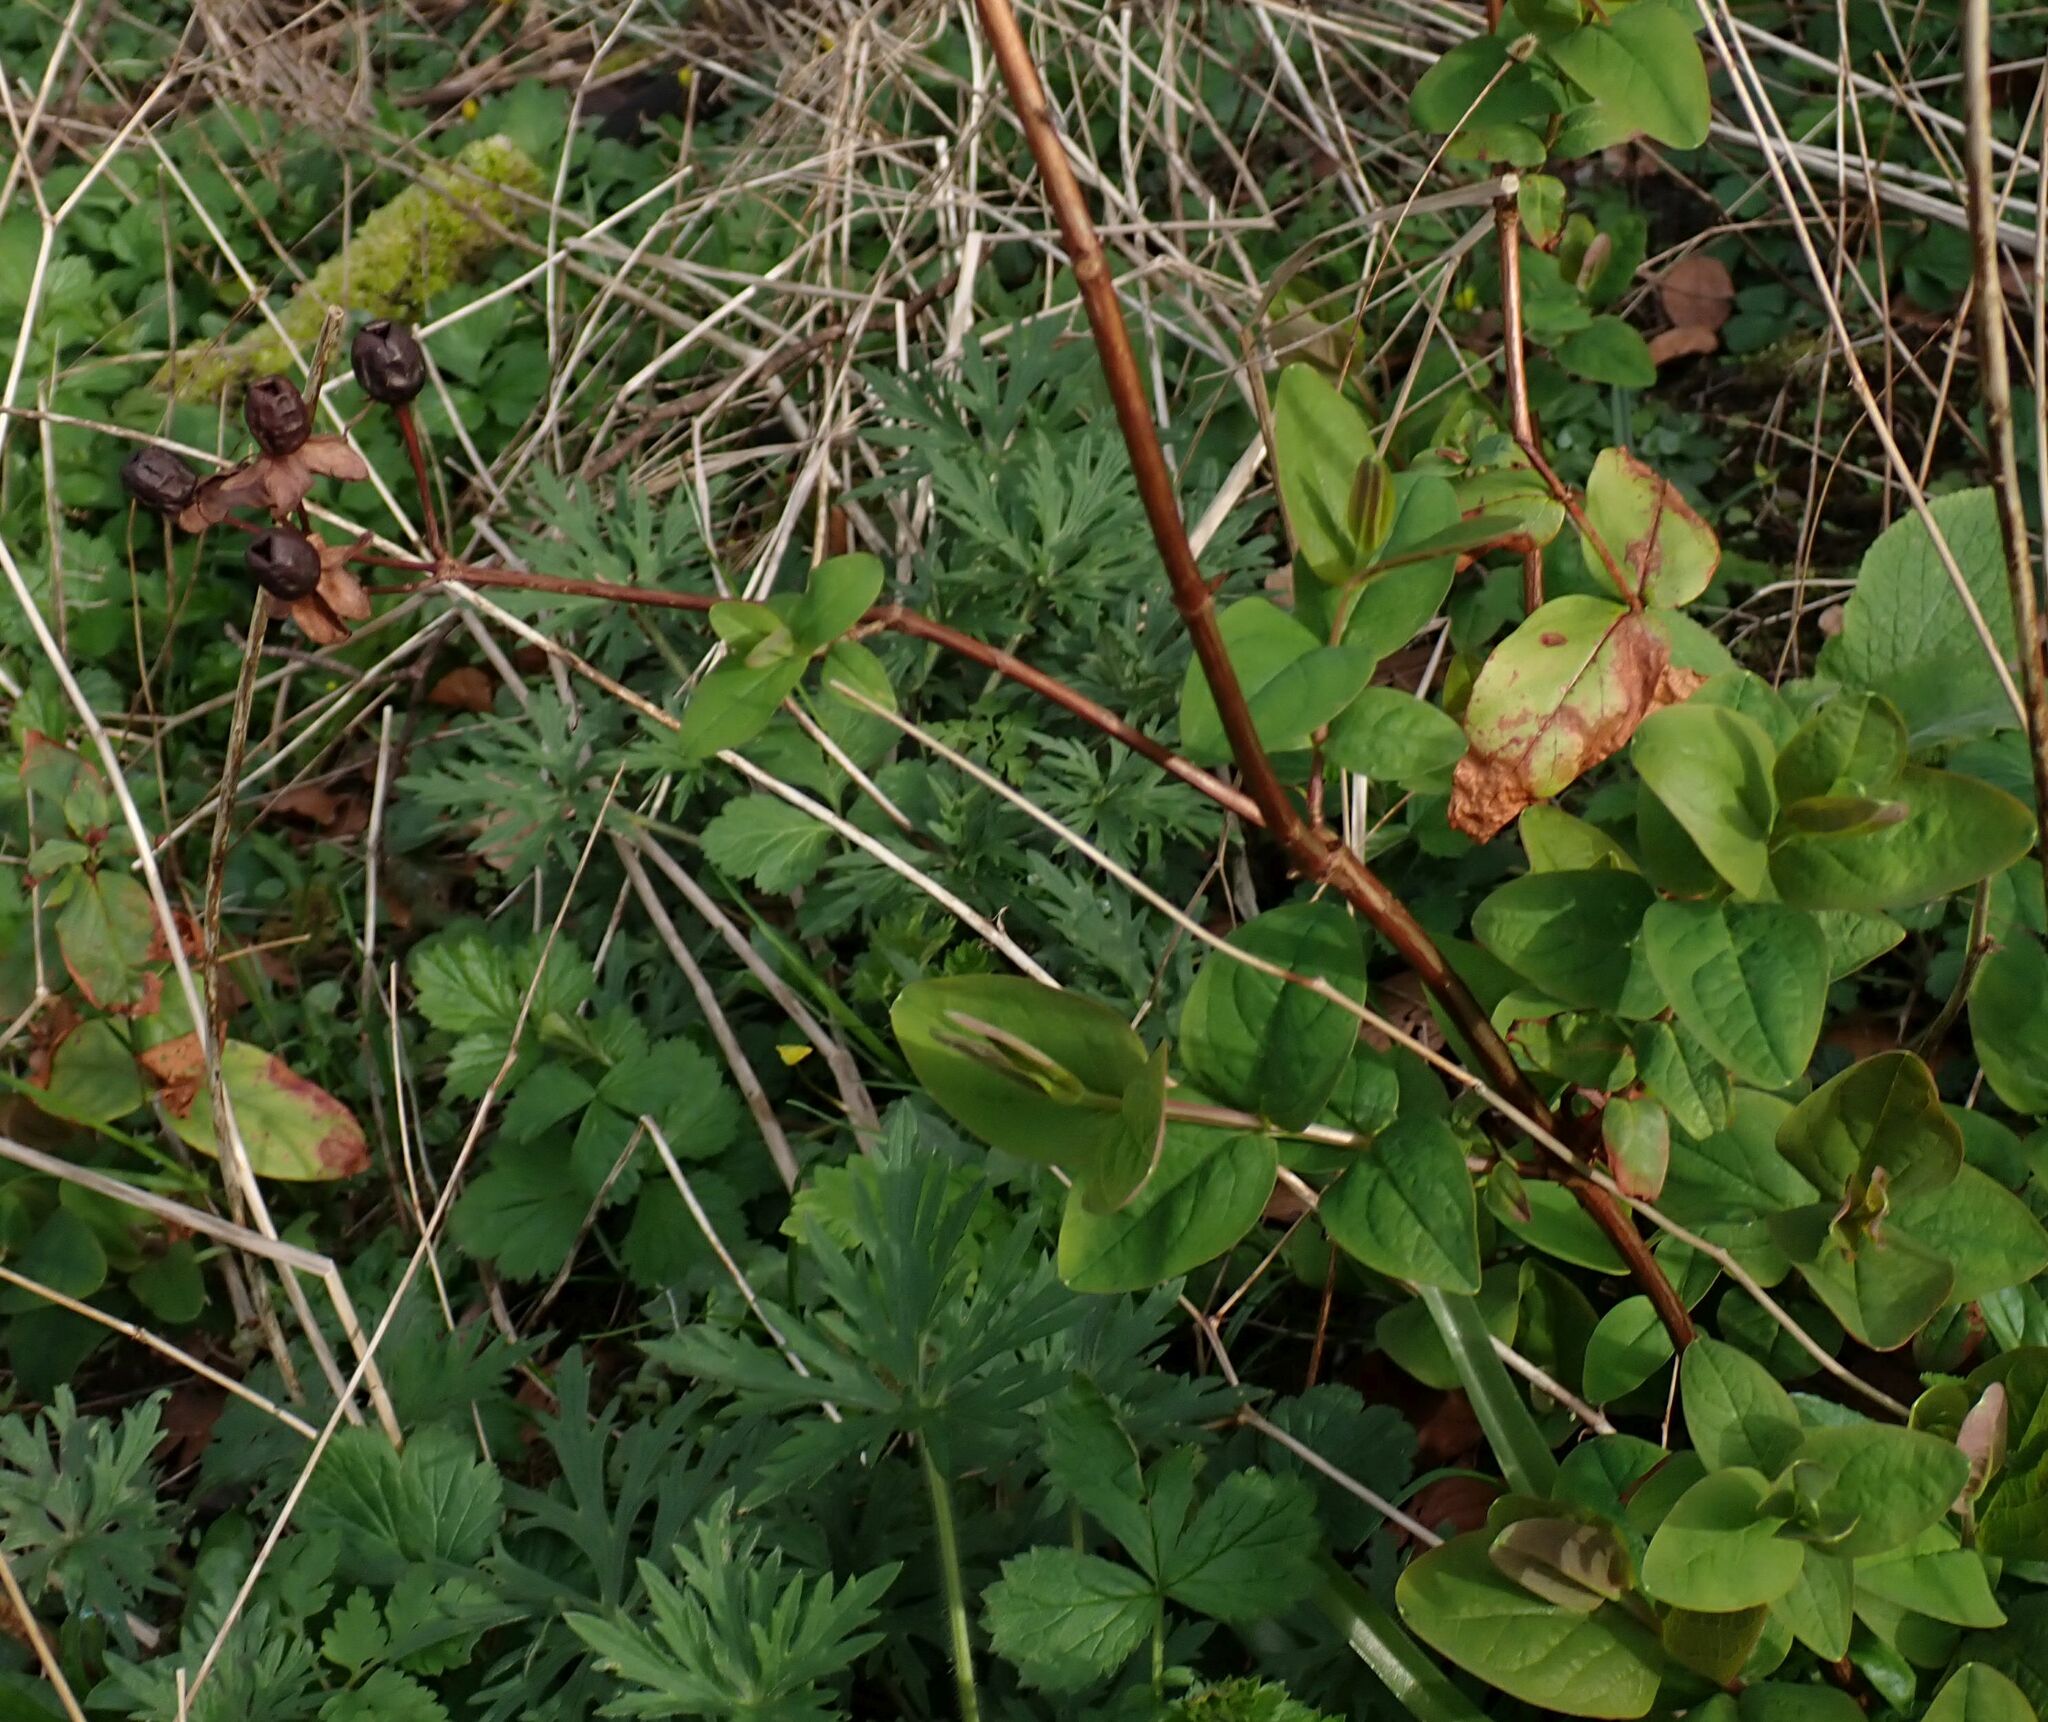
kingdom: Plantae
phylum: Tracheophyta
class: Magnoliopsida
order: Malpighiales
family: Hypericaceae
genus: Hypericum
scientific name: Hypericum androsaemum
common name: Sweet-amber
